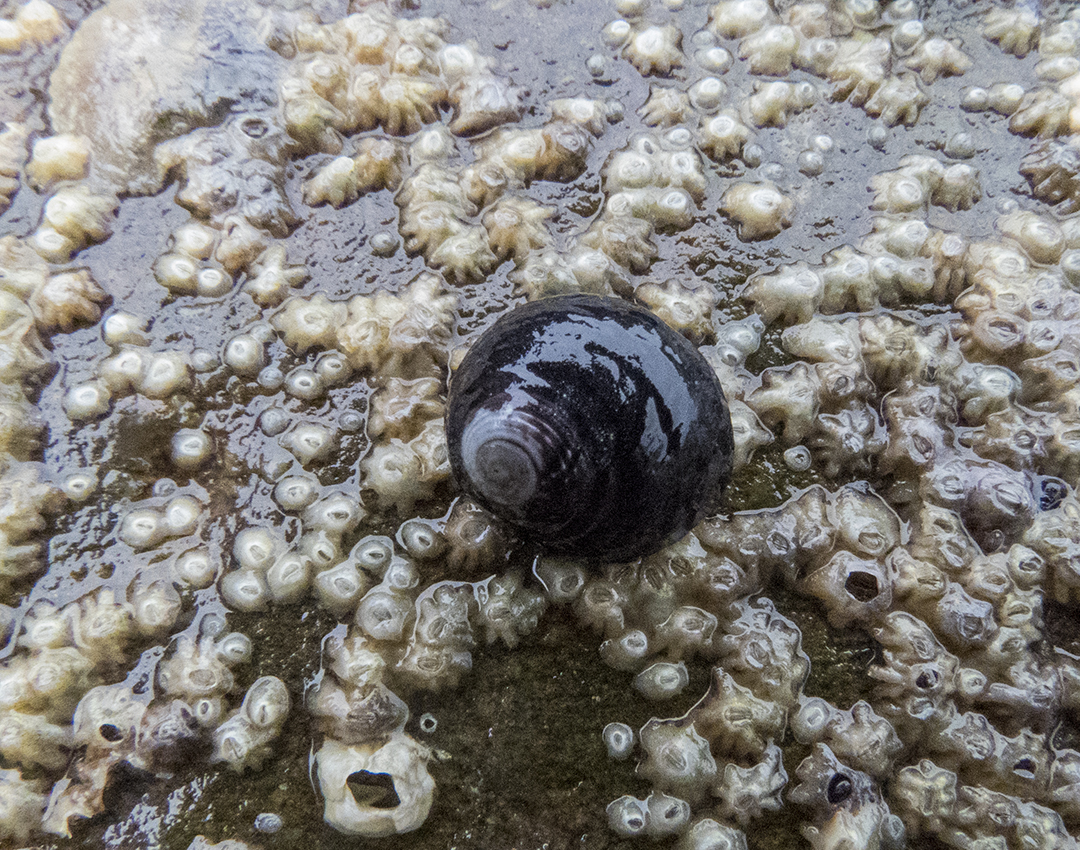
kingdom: Animalia
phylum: Mollusca
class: Gastropoda
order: Trochida
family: Trochidae
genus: Diloma
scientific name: Diloma zelandicum
